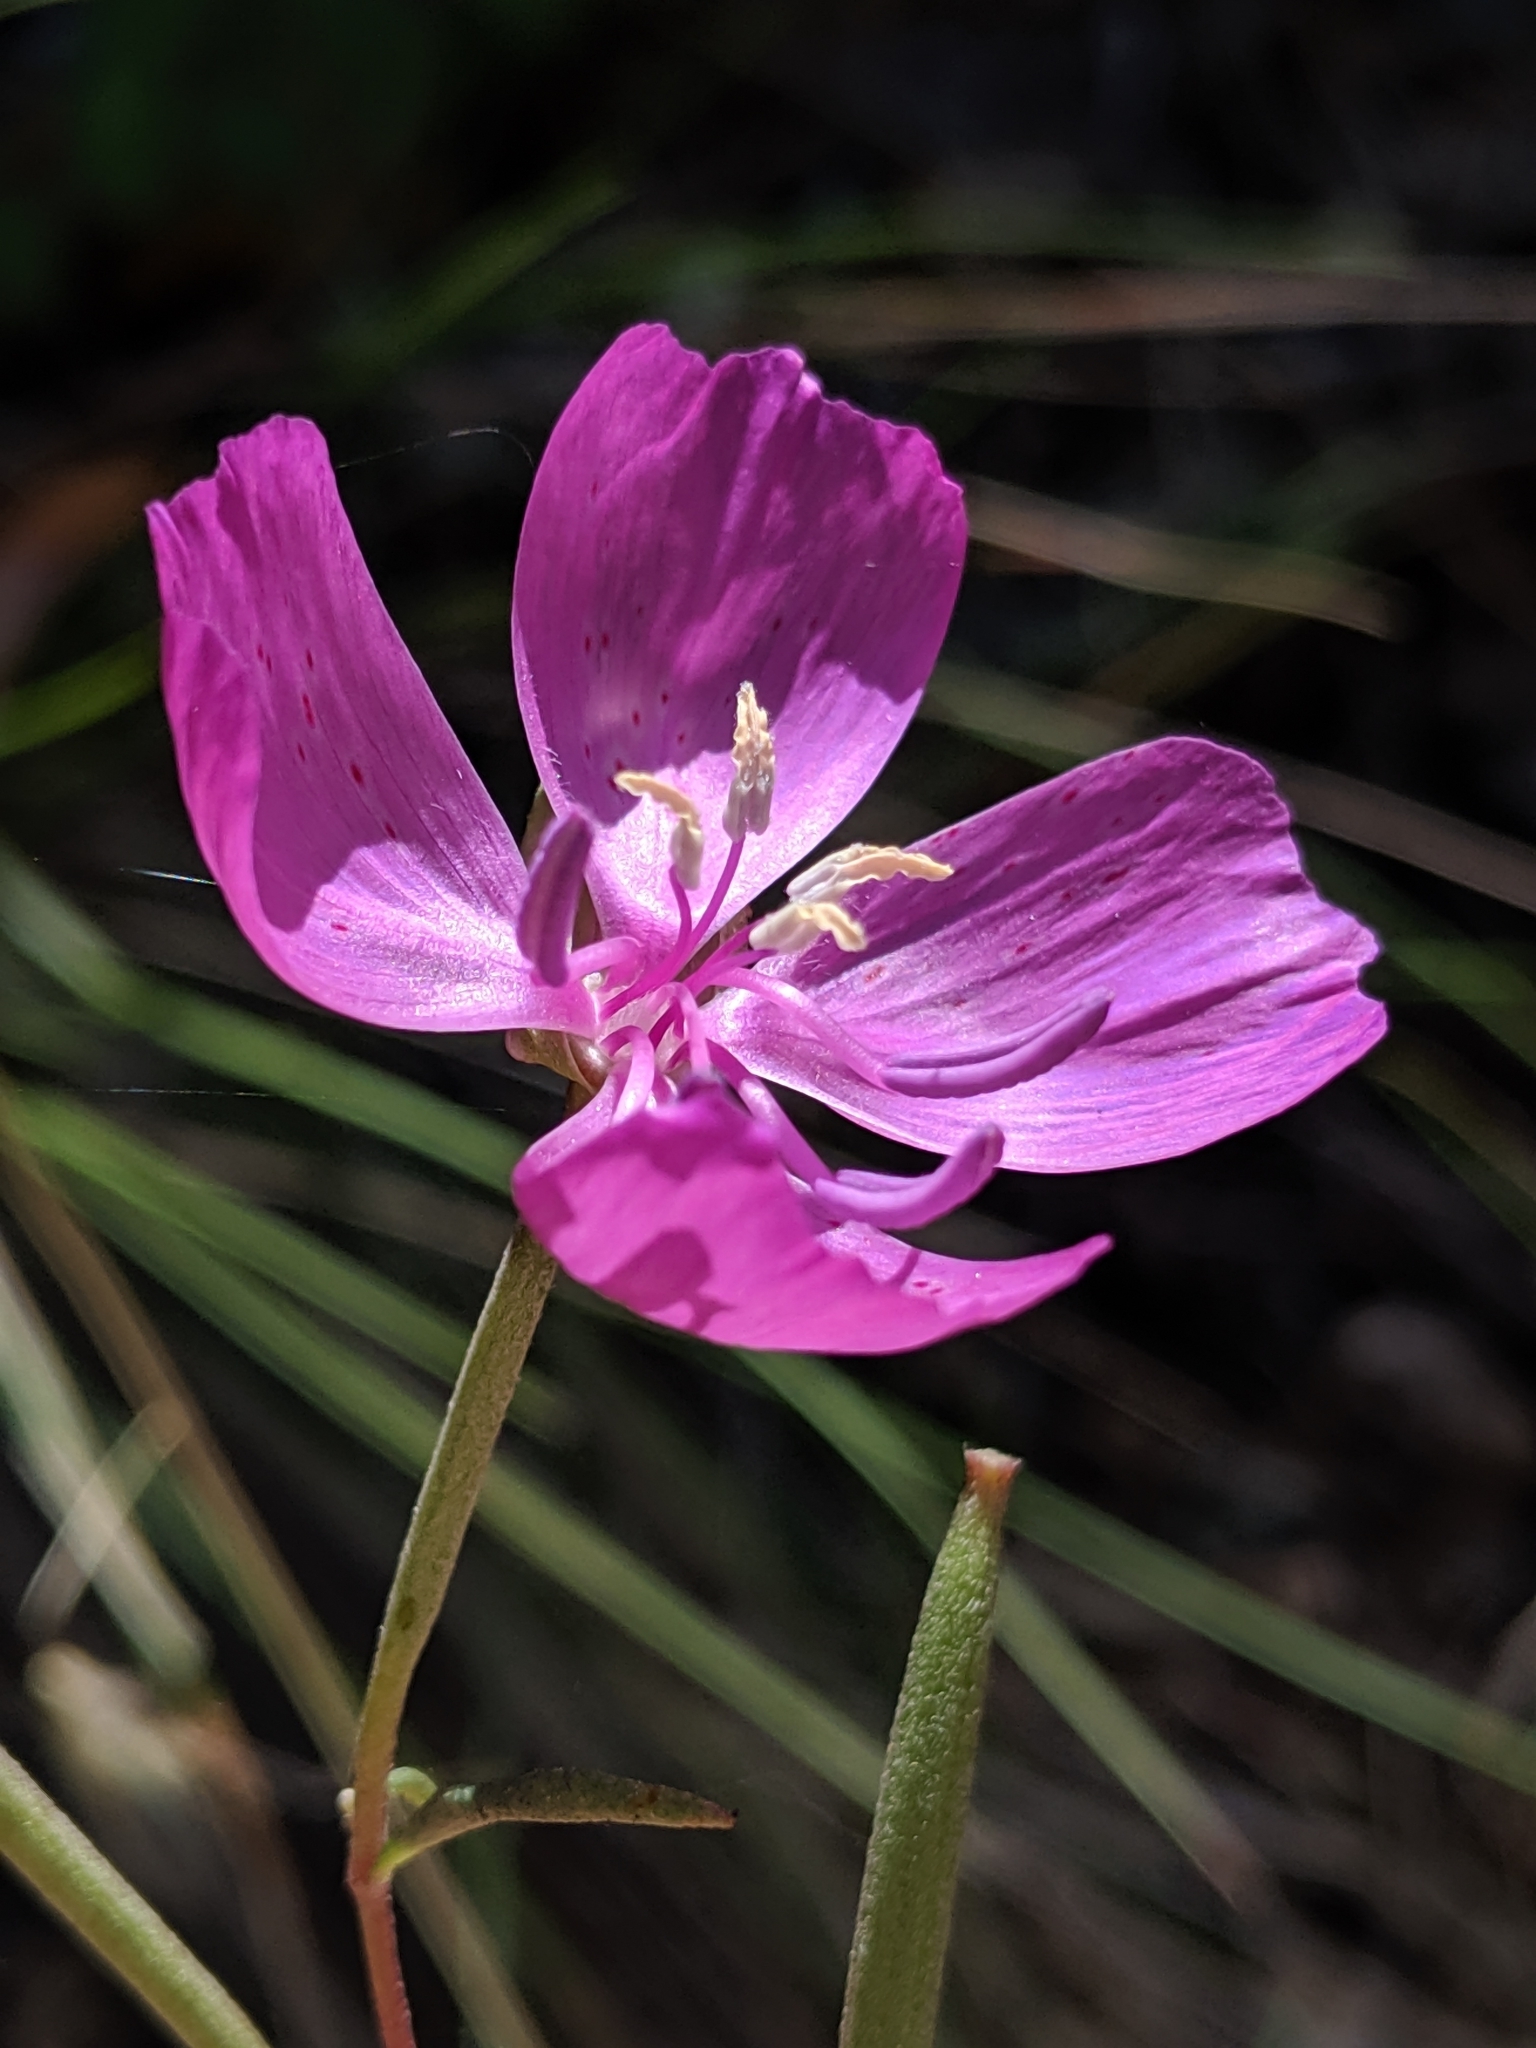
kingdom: Plantae
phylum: Tracheophyta
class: Magnoliopsida
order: Myrtales
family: Onagraceae
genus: Clarkia
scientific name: Clarkia bottae
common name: Punch-bowl godetia
